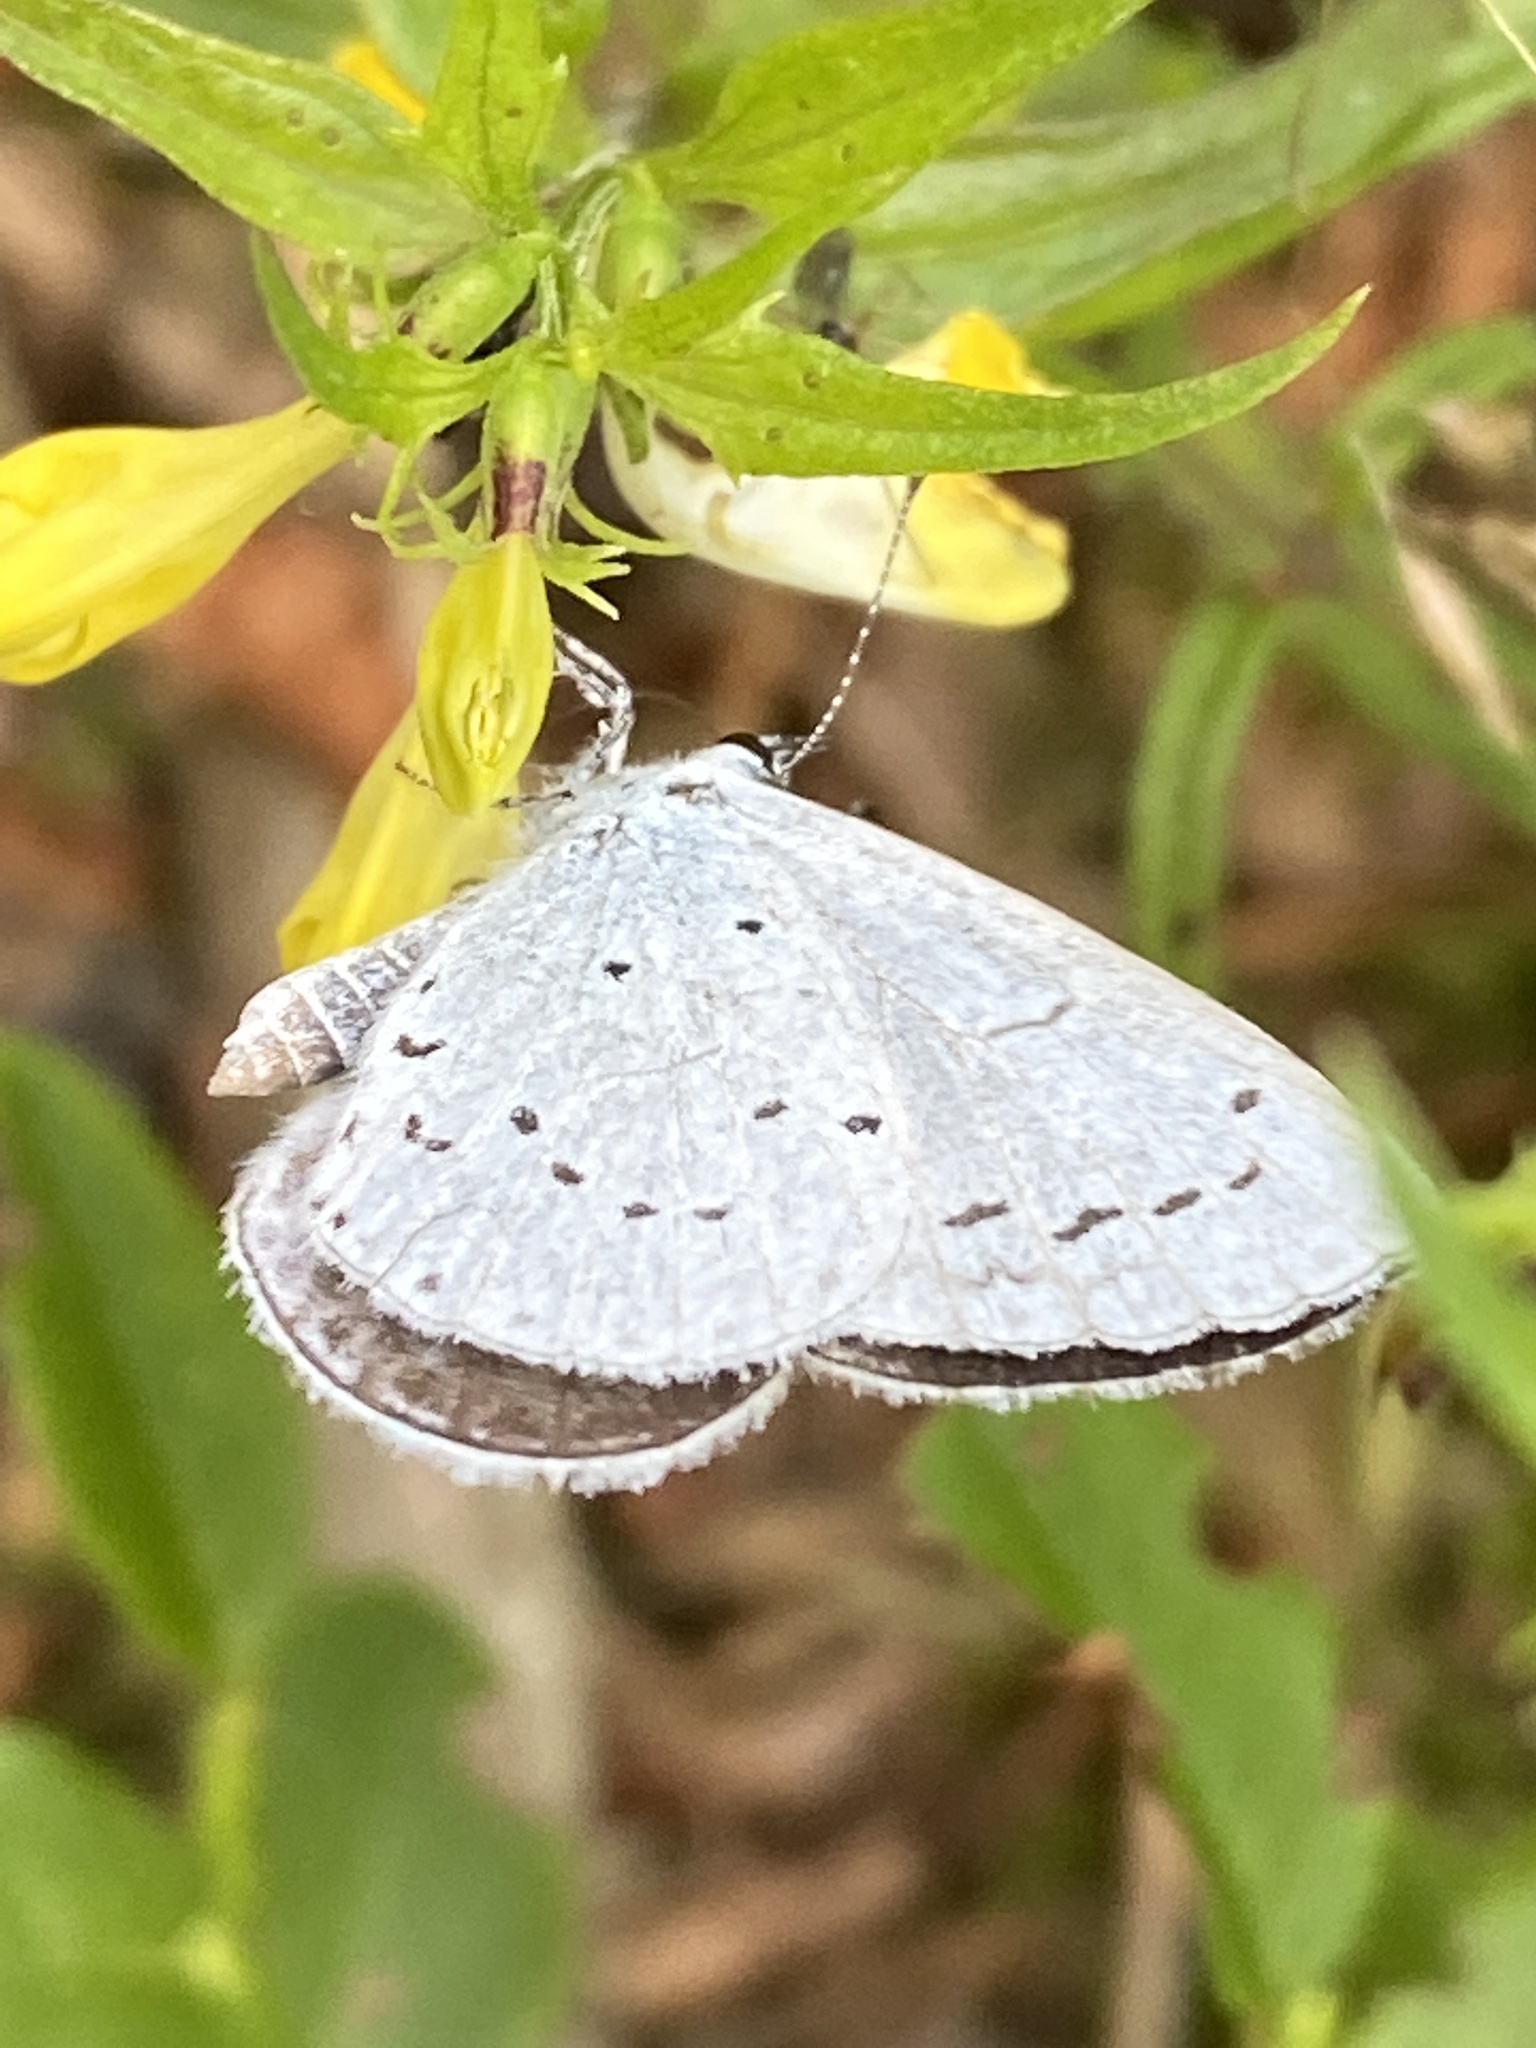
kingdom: Animalia
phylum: Arthropoda
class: Insecta
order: Lepidoptera
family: Lycaenidae
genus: Celastrina
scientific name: Celastrina argiolus
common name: Holly blue
